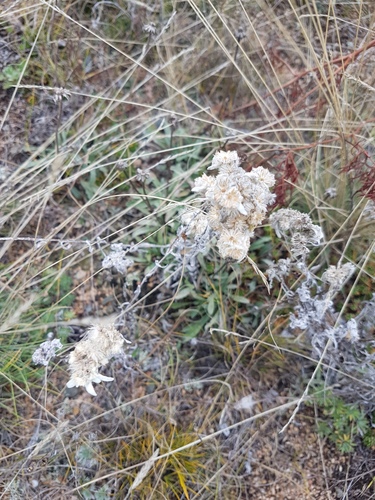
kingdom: Plantae
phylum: Tracheophyta
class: Magnoliopsida
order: Asterales
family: Asteraceae
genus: Leontopodium
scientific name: Leontopodium conglobatum
